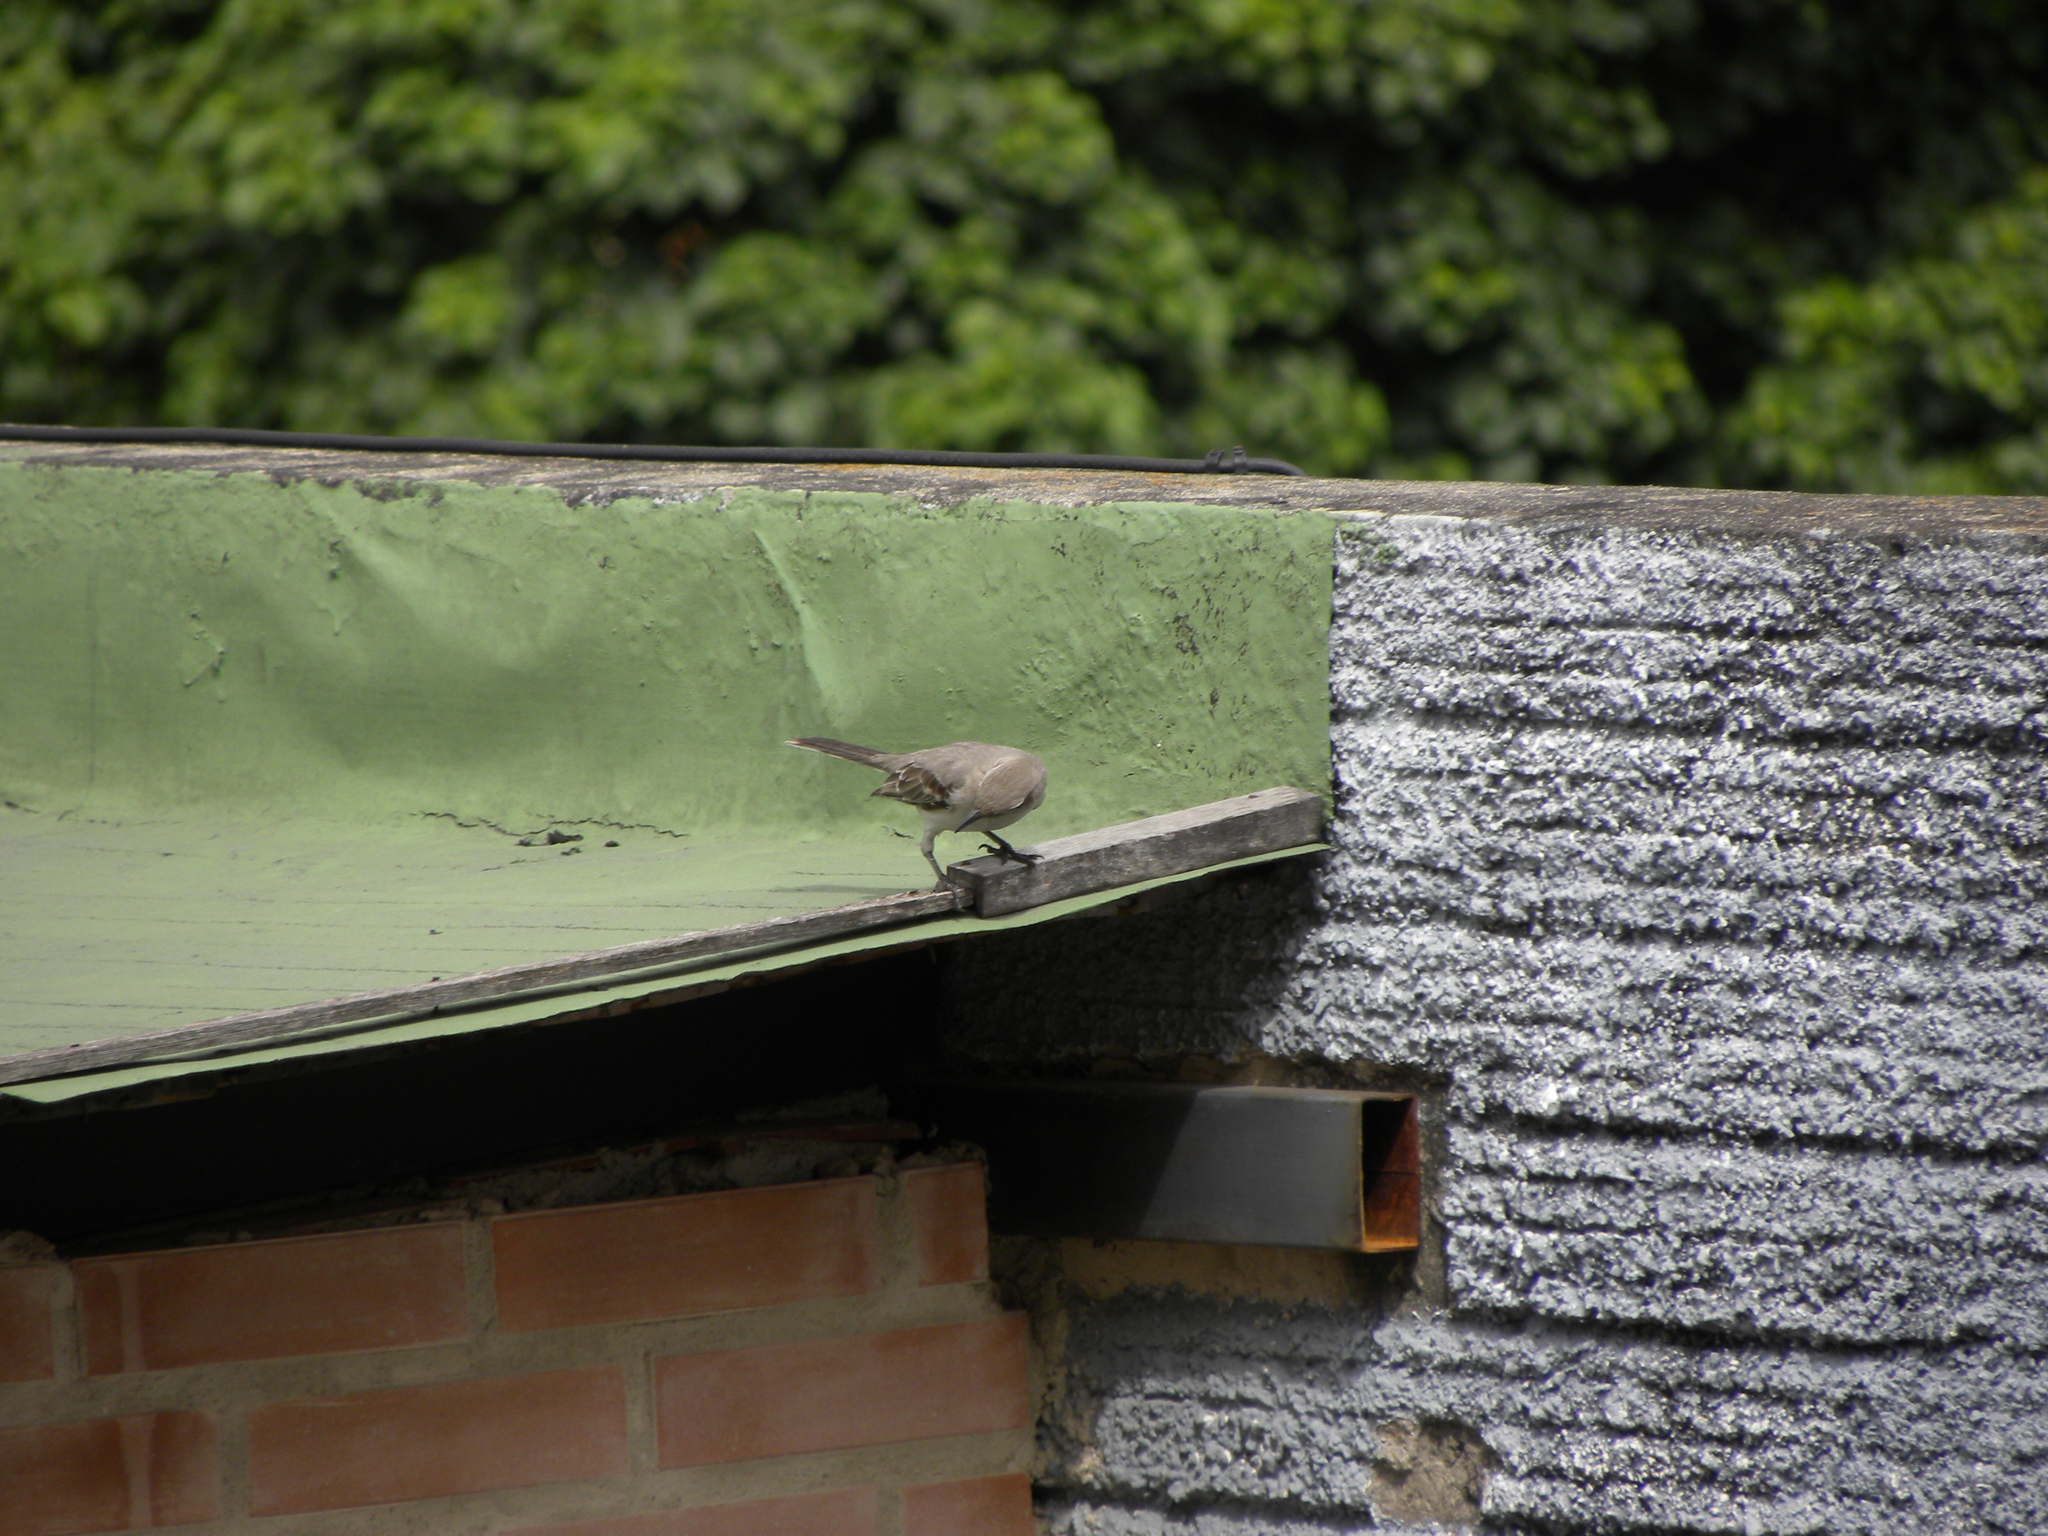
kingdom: Animalia
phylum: Chordata
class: Aves
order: Passeriformes
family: Mimidae
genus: Mimus
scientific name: Mimus gilvus
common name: Tropical mockingbird
